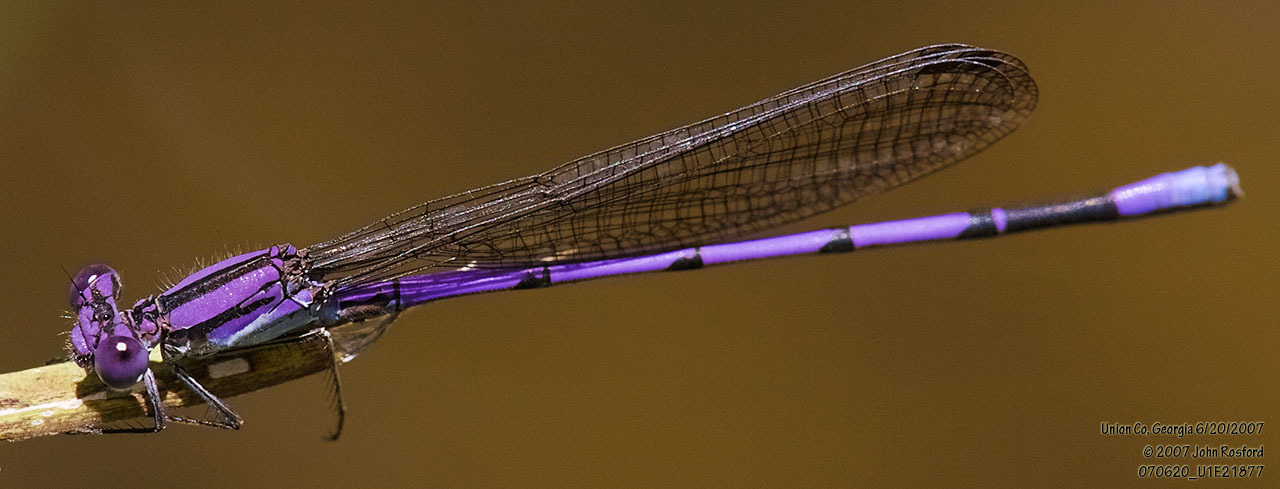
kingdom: Animalia
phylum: Arthropoda
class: Insecta
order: Odonata
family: Coenagrionidae
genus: Argia
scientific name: Argia fumipennis
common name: Variable dancer
